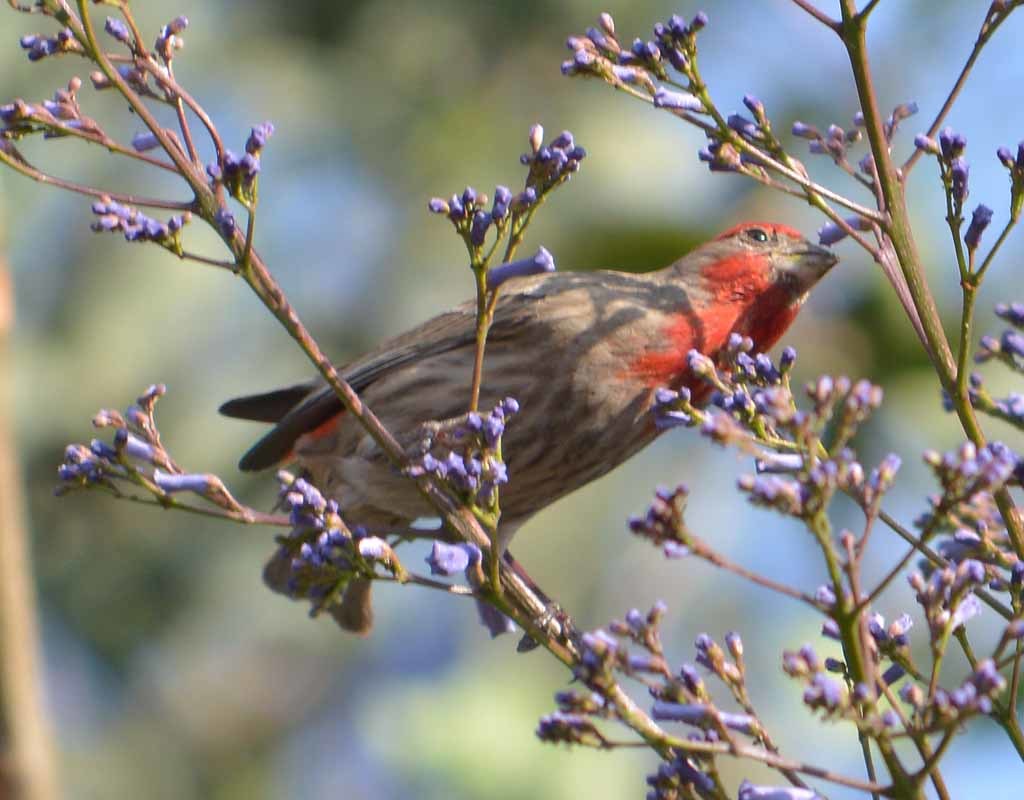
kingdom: Animalia
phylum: Chordata
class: Aves
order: Passeriformes
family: Fringillidae
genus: Haemorhous
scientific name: Haemorhous mexicanus
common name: House finch
